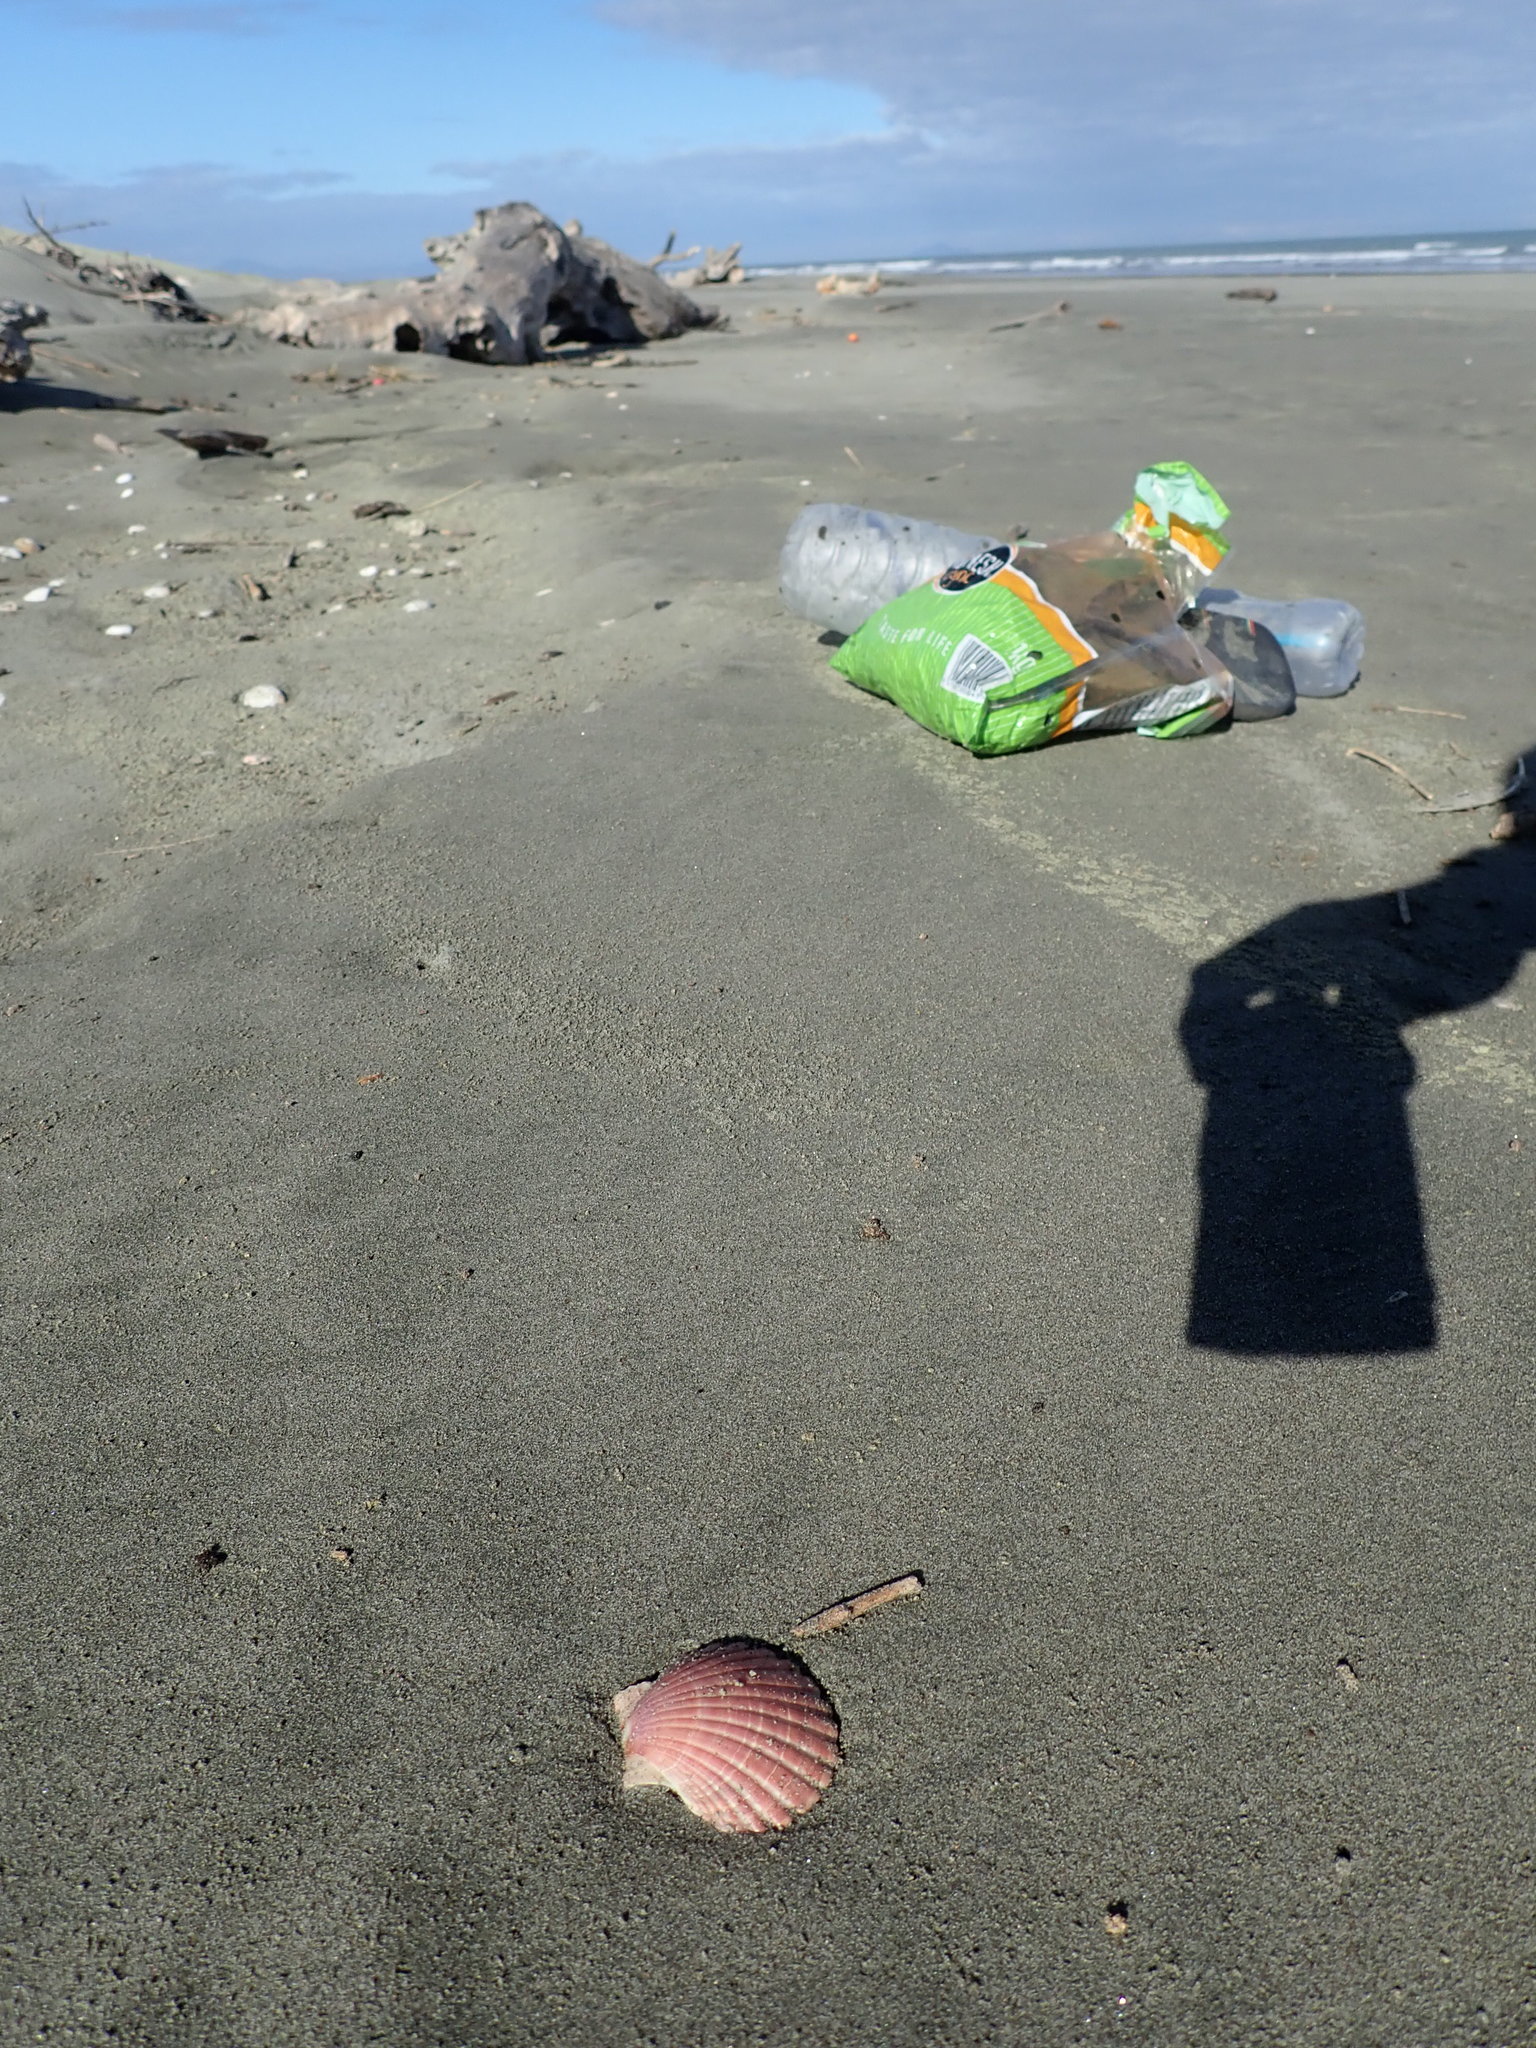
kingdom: Animalia
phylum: Mollusca
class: Bivalvia
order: Pectinida
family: Pectinidae
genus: Pecten
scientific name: Pecten novaezelandiae
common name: New zealand scallop
